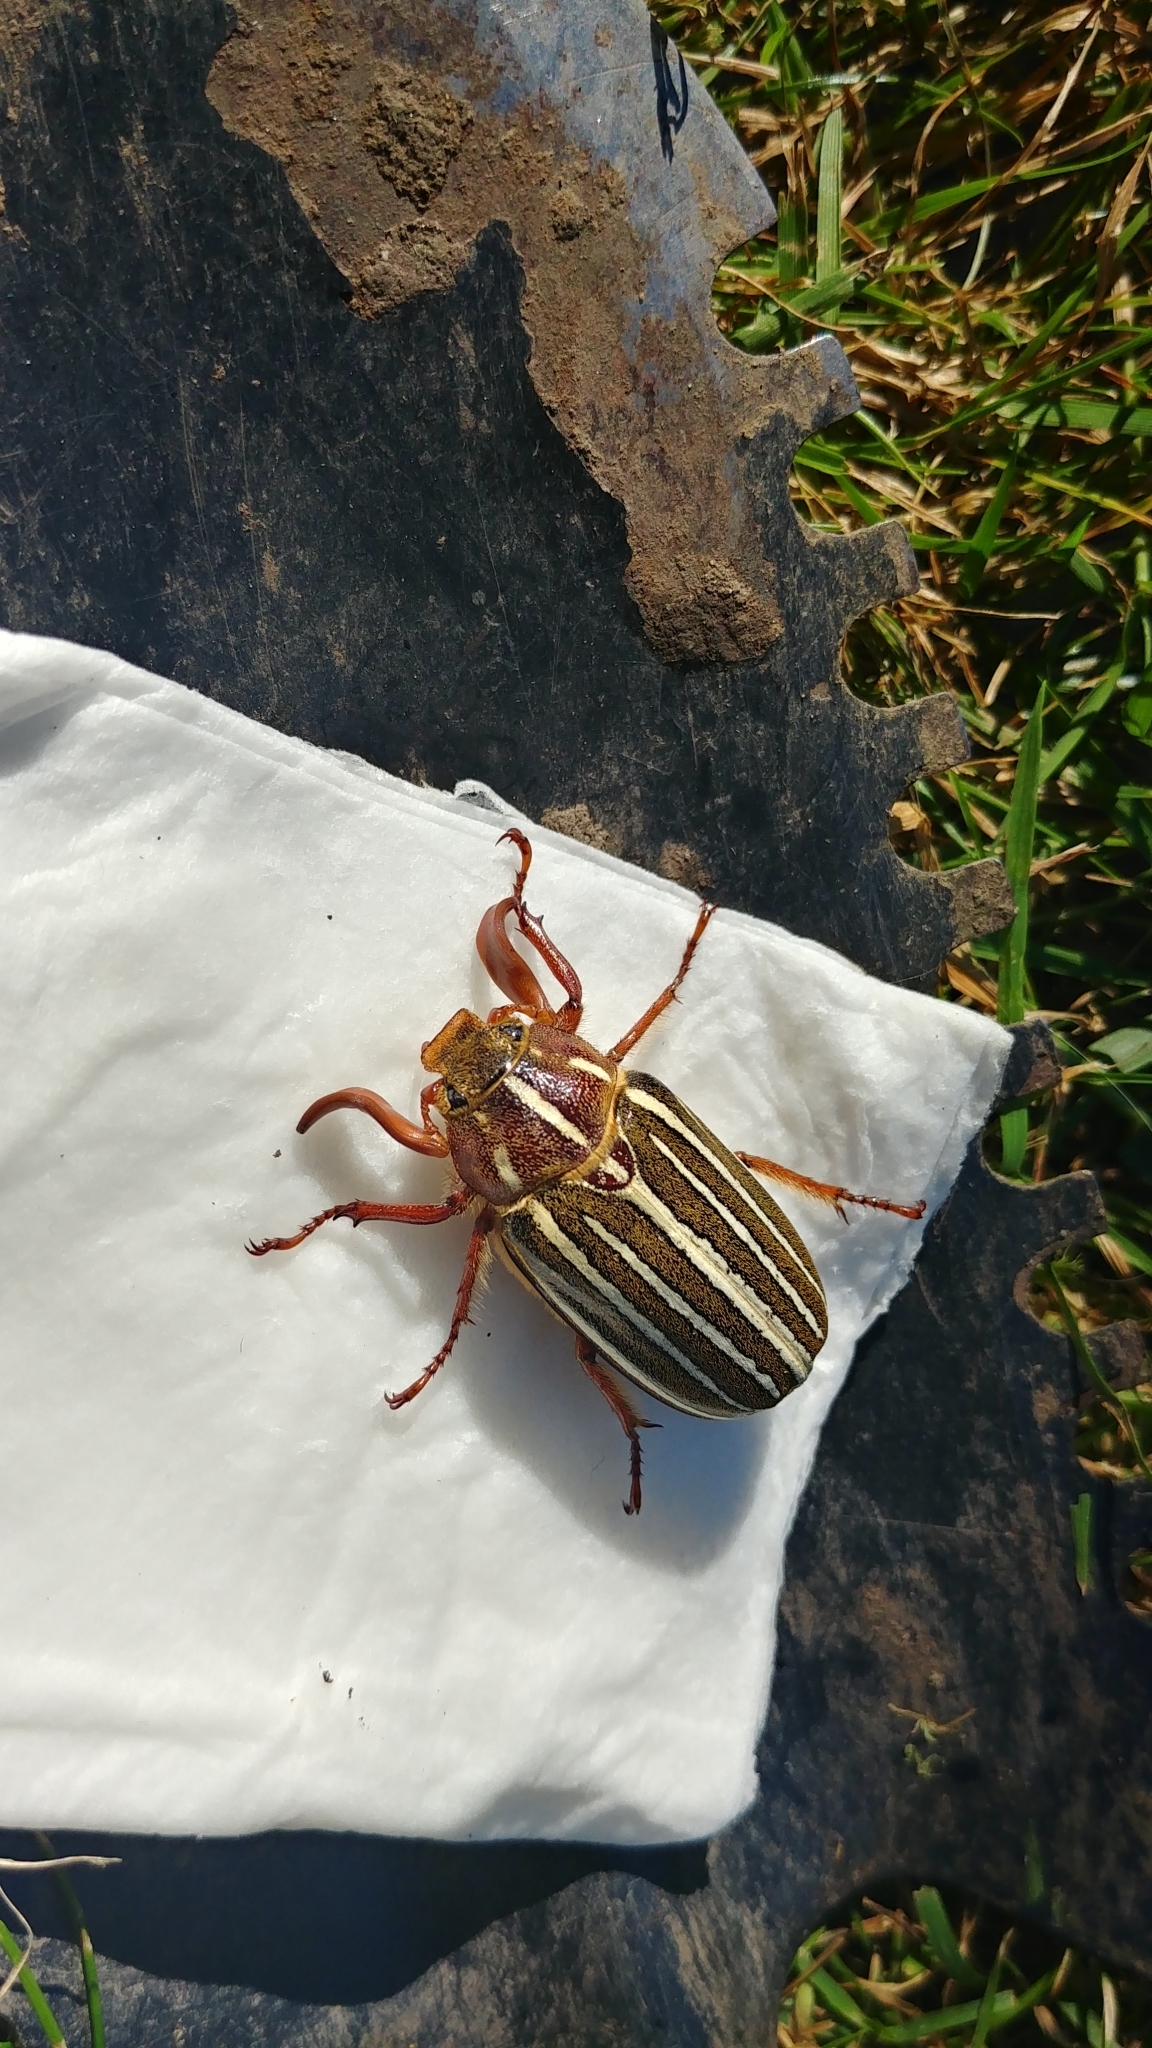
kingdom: Animalia
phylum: Arthropoda
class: Insecta
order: Coleoptera
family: Scarabaeidae
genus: Polyphylla
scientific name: Polyphylla crinita
